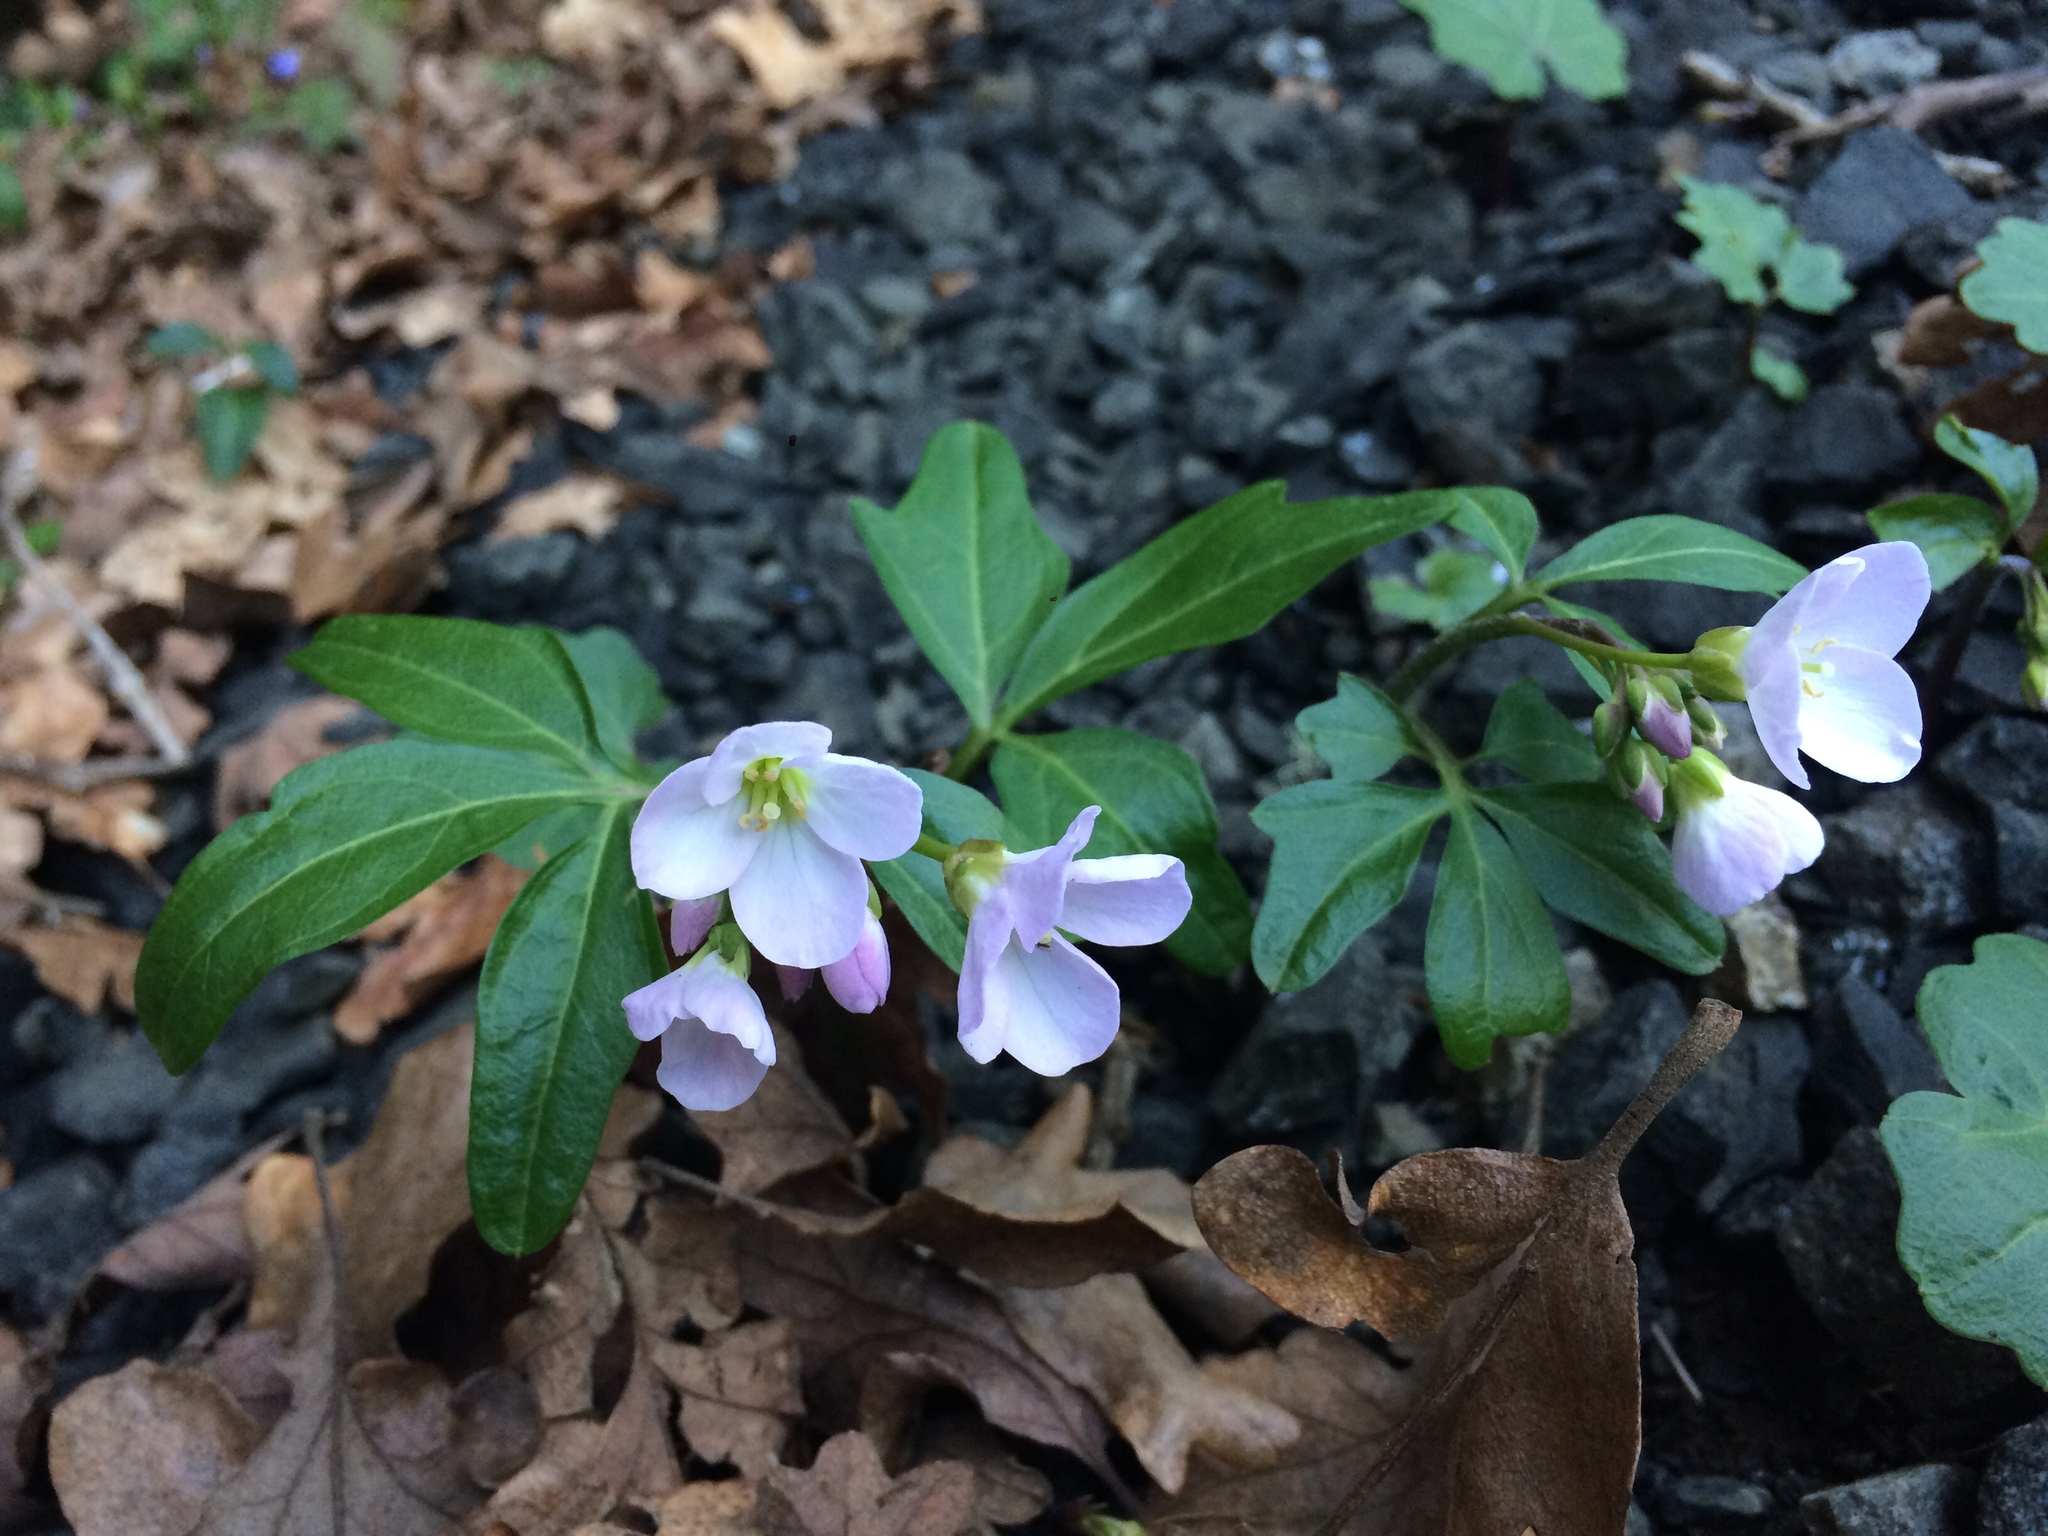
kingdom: Plantae
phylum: Tracheophyta
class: Magnoliopsida
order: Brassicales
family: Brassicaceae
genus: Cardamine
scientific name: Cardamine nuttallii
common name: Nuttall's toothwort
